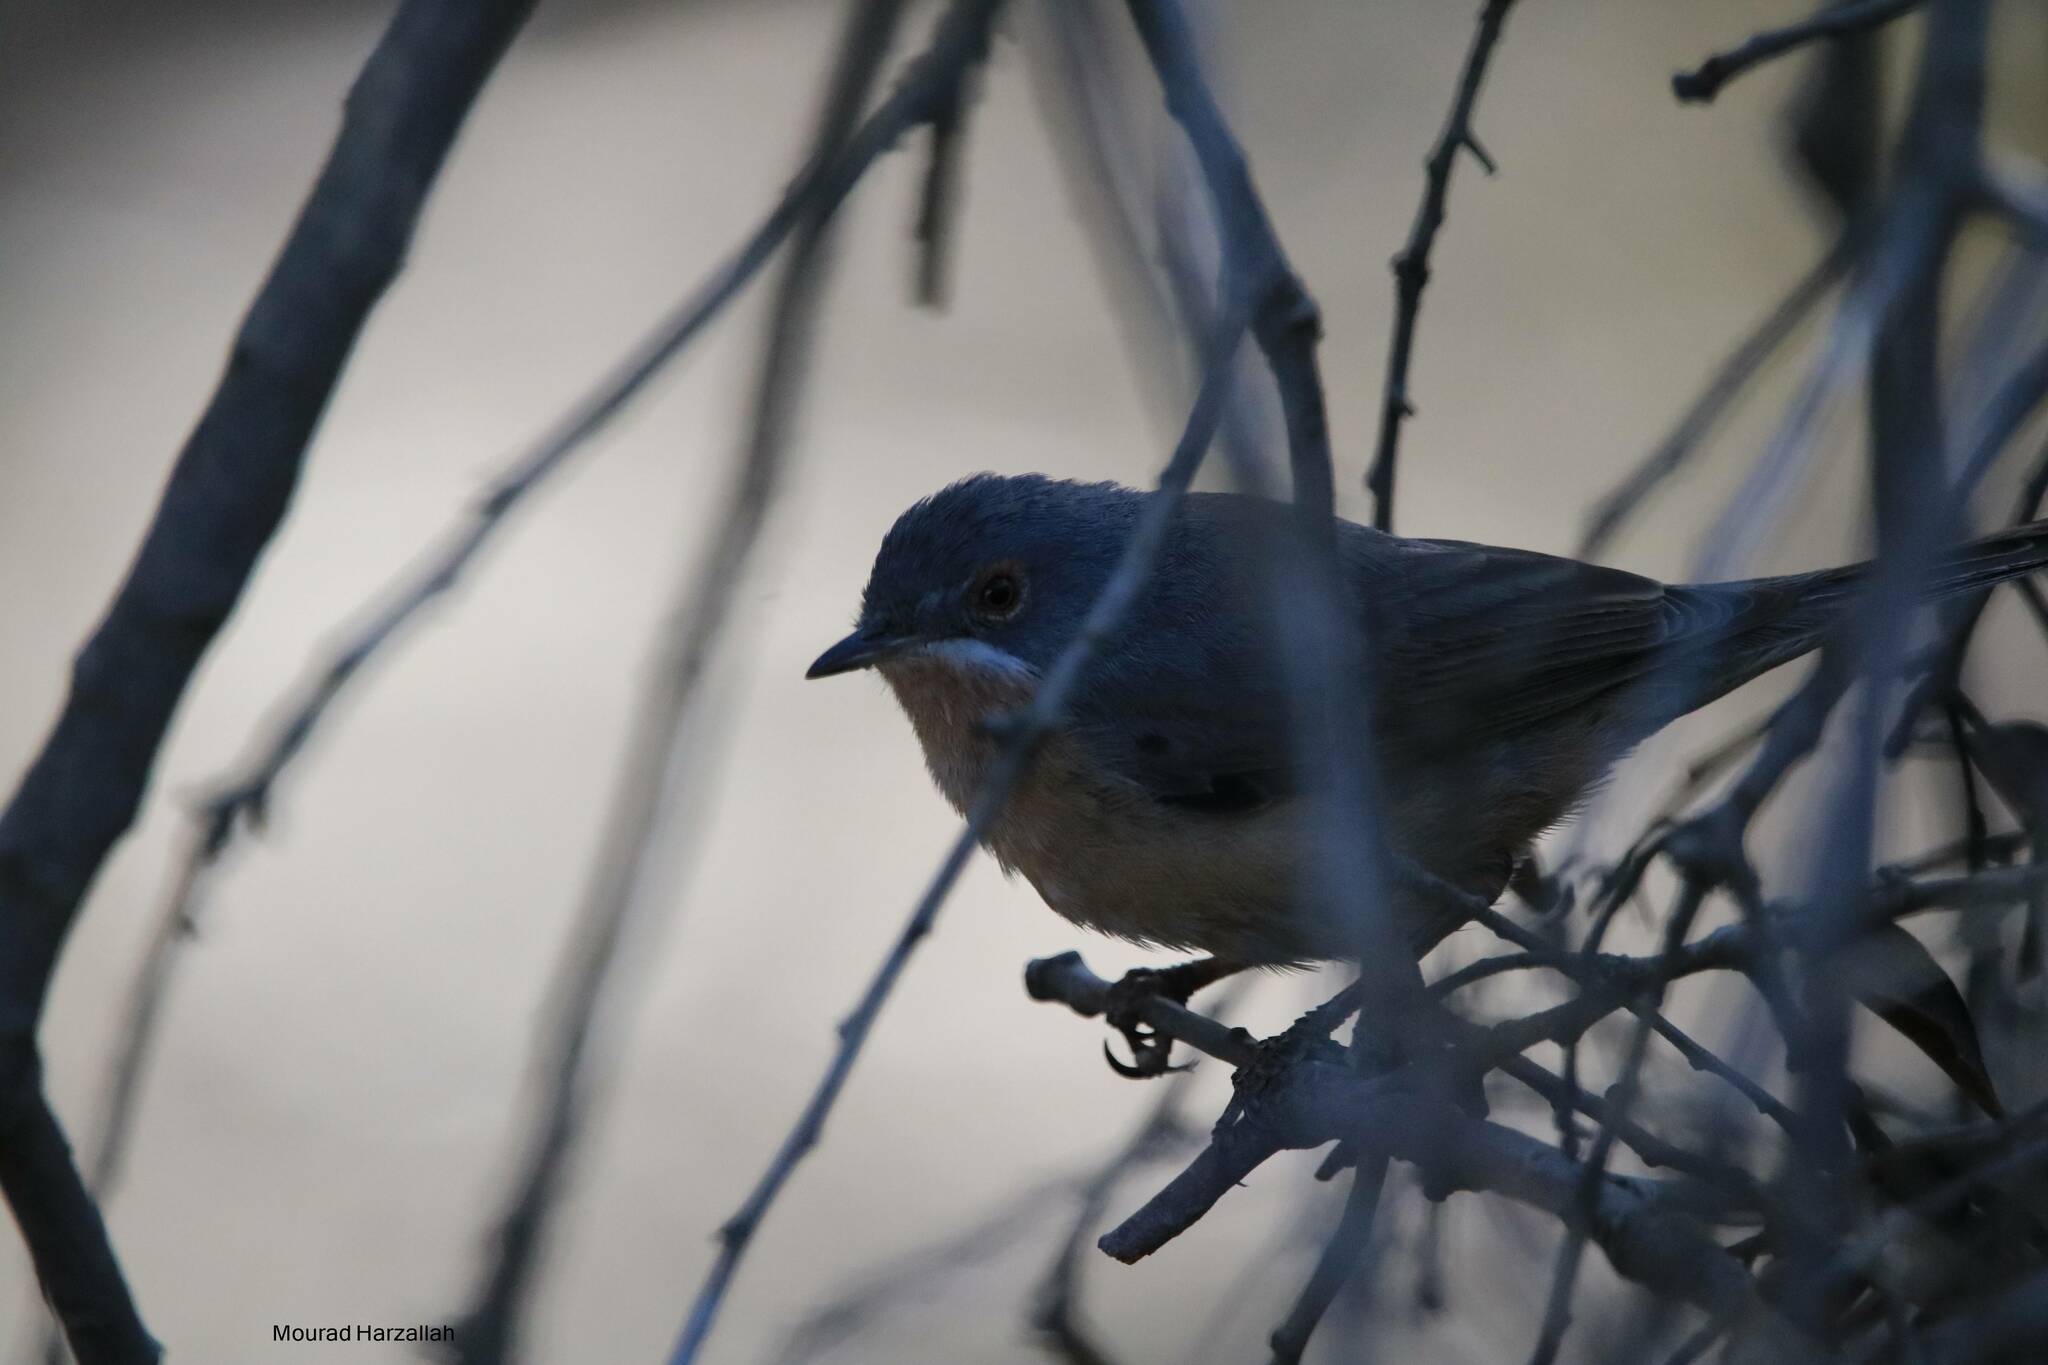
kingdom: Animalia
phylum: Chordata
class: Aves
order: Passeriformes
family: Sylviidae
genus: Curruca
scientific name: Curruca iberiae
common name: Western subalpine warbler
